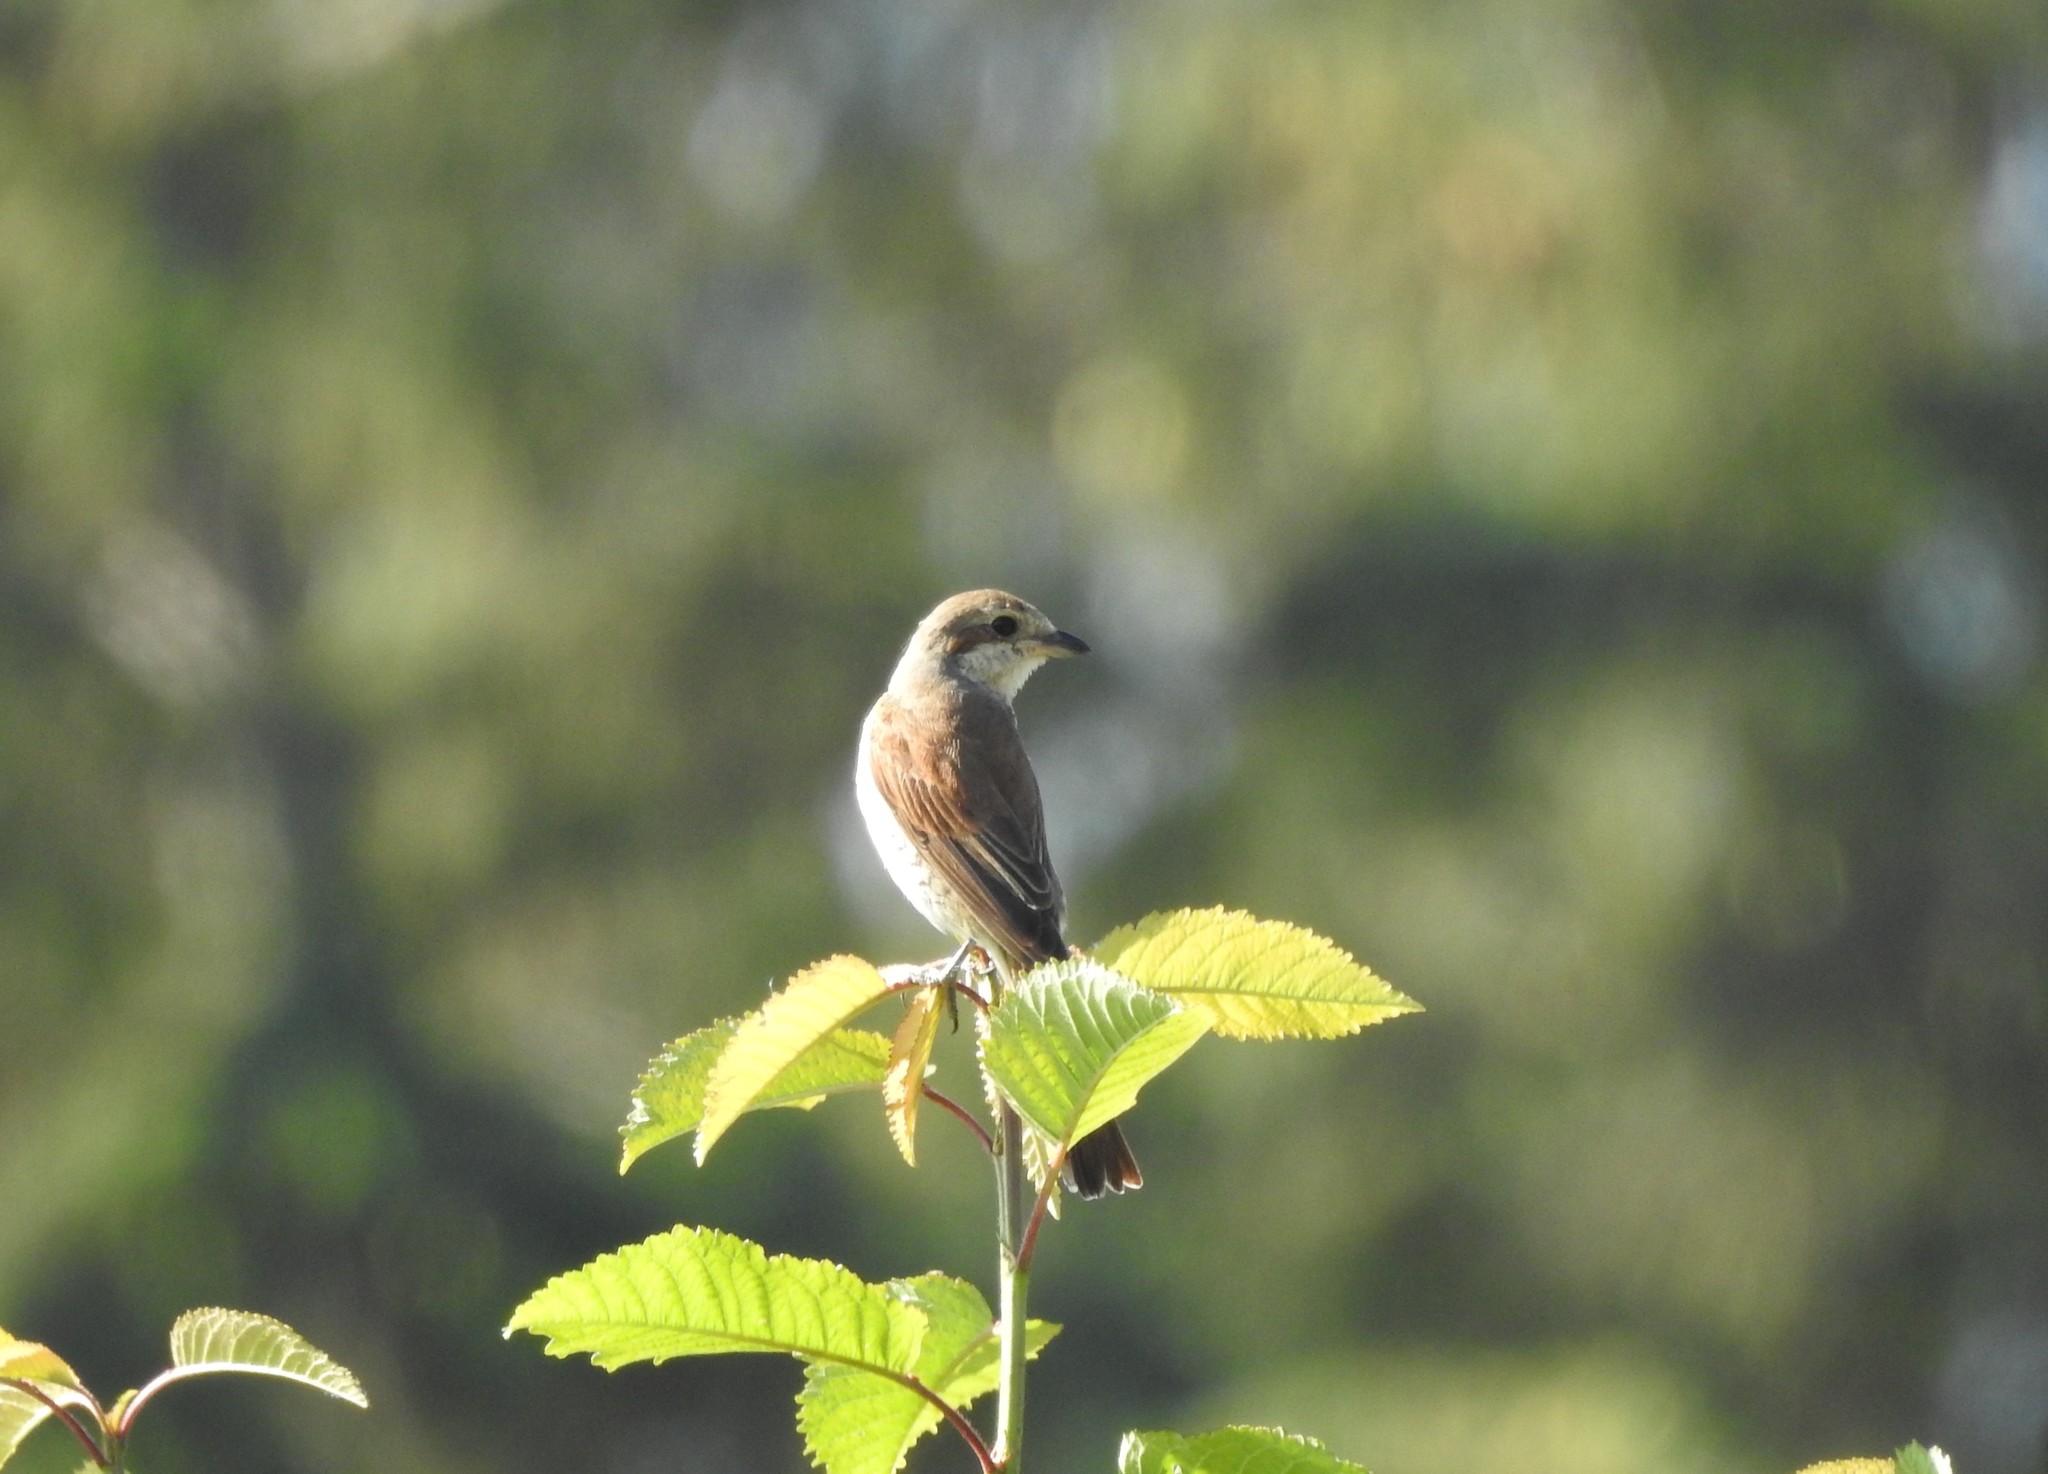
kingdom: Animalia
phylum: Chordata
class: Aves
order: Passeriformes
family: Laniidae
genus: Lanius
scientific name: Lanius collurio
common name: Red-backed shrike
